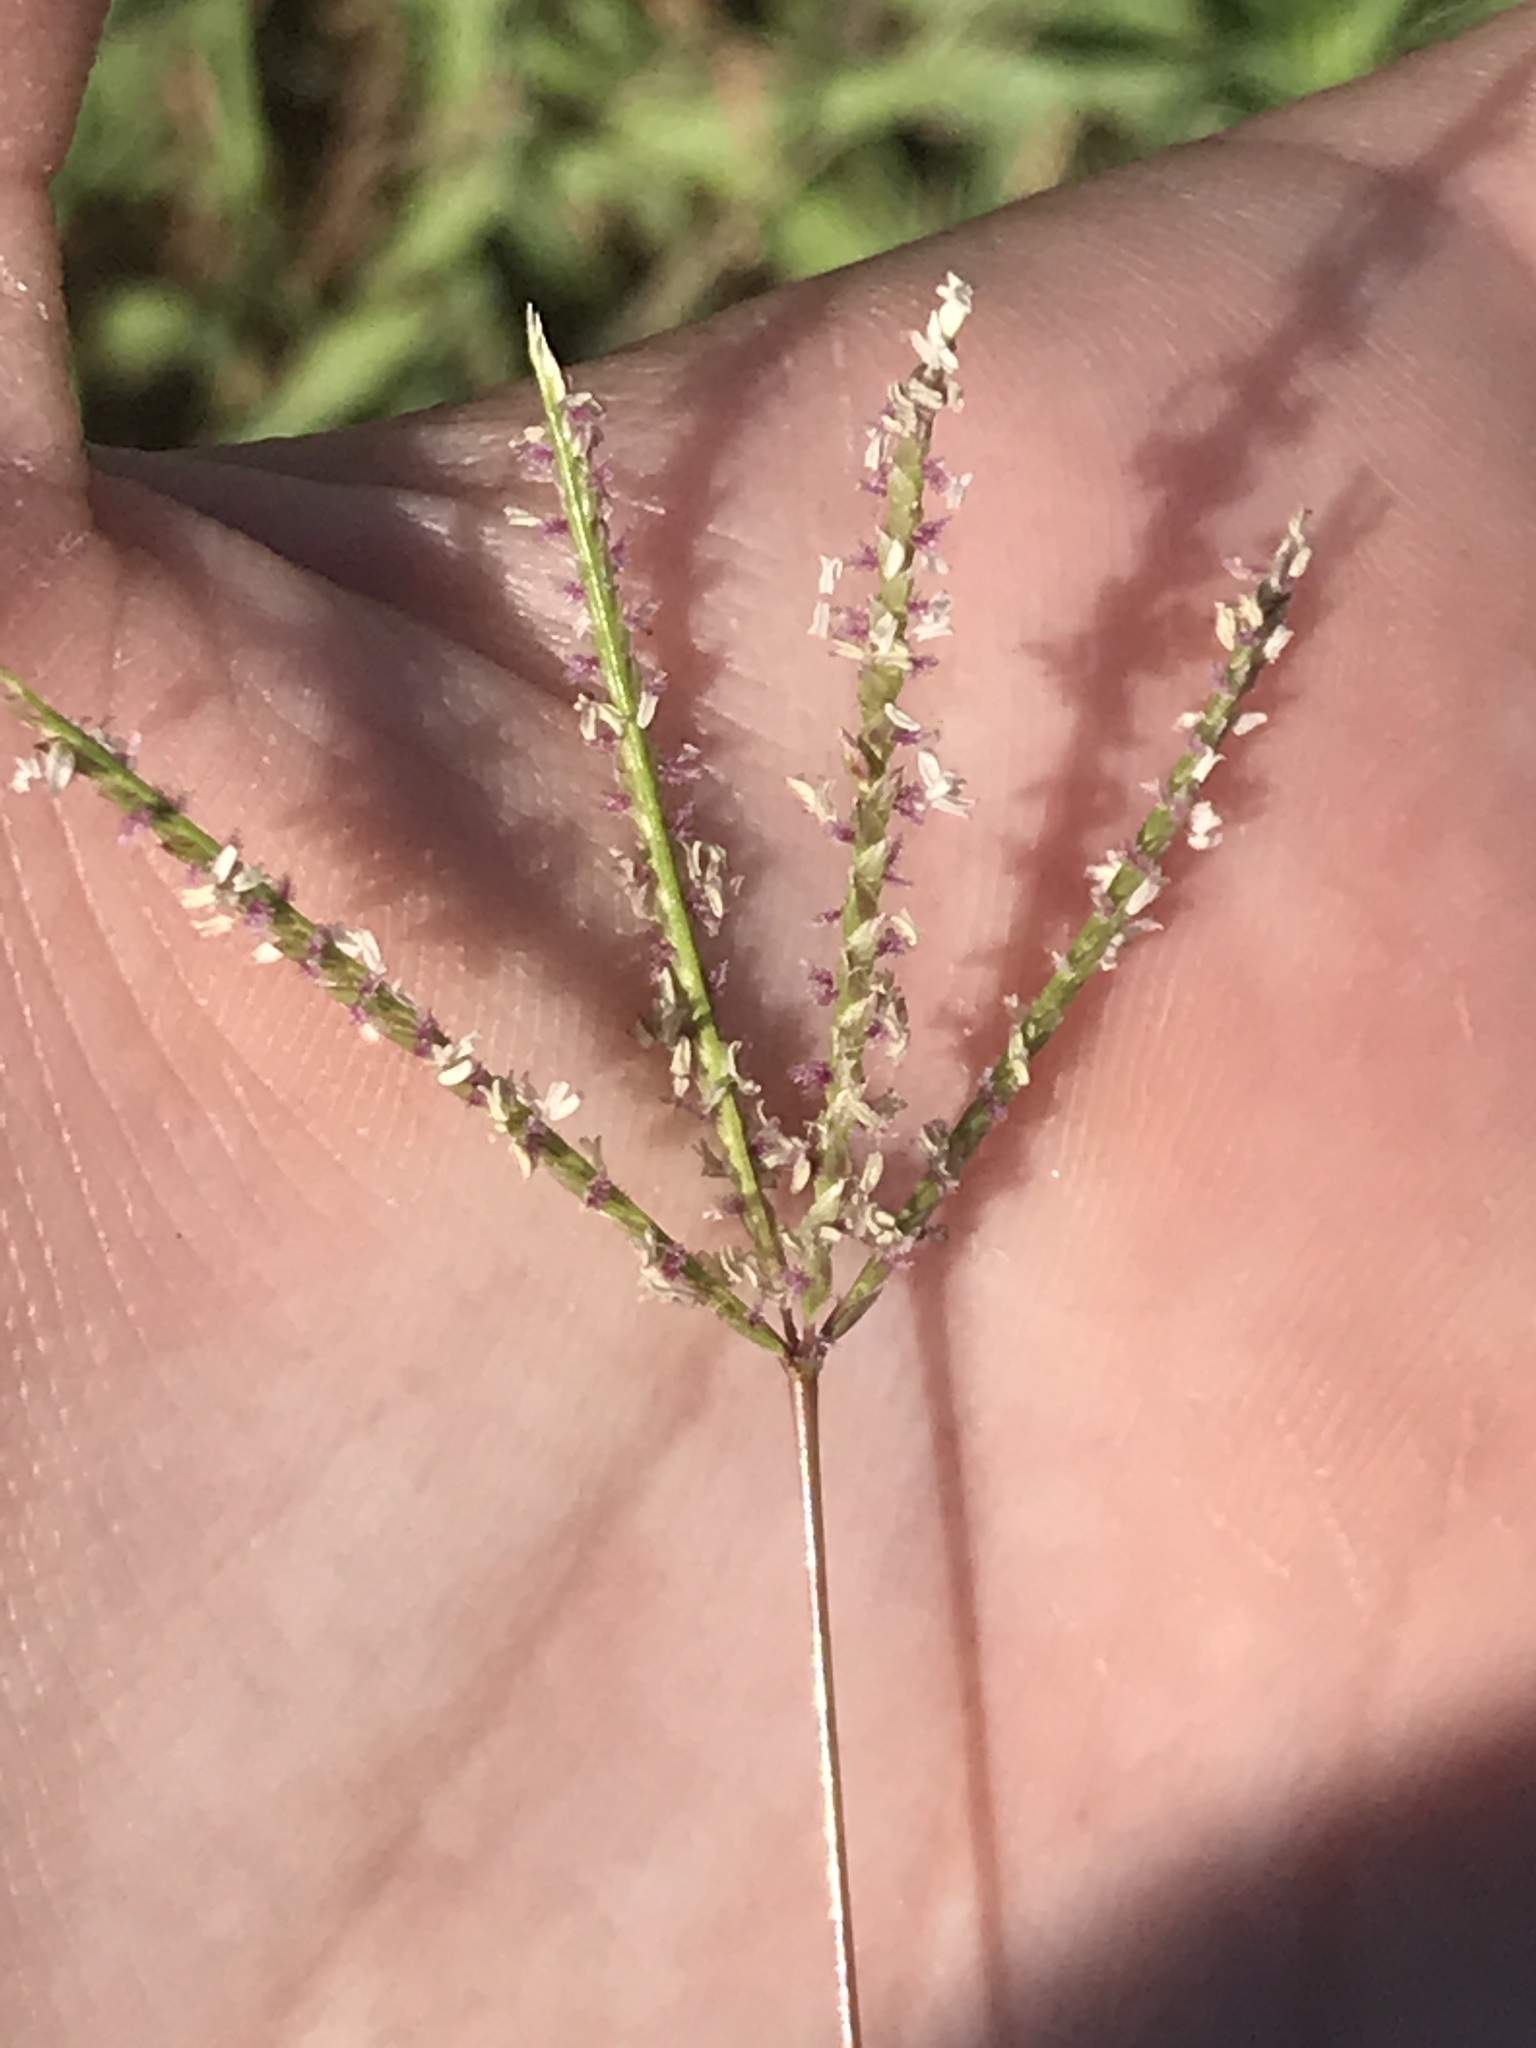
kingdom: Plantae
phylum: Tracheophyta
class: Liliopsida
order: Poales
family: Poaceae
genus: Cynodon
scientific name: Cynodon dactylon
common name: Bermuda grass
